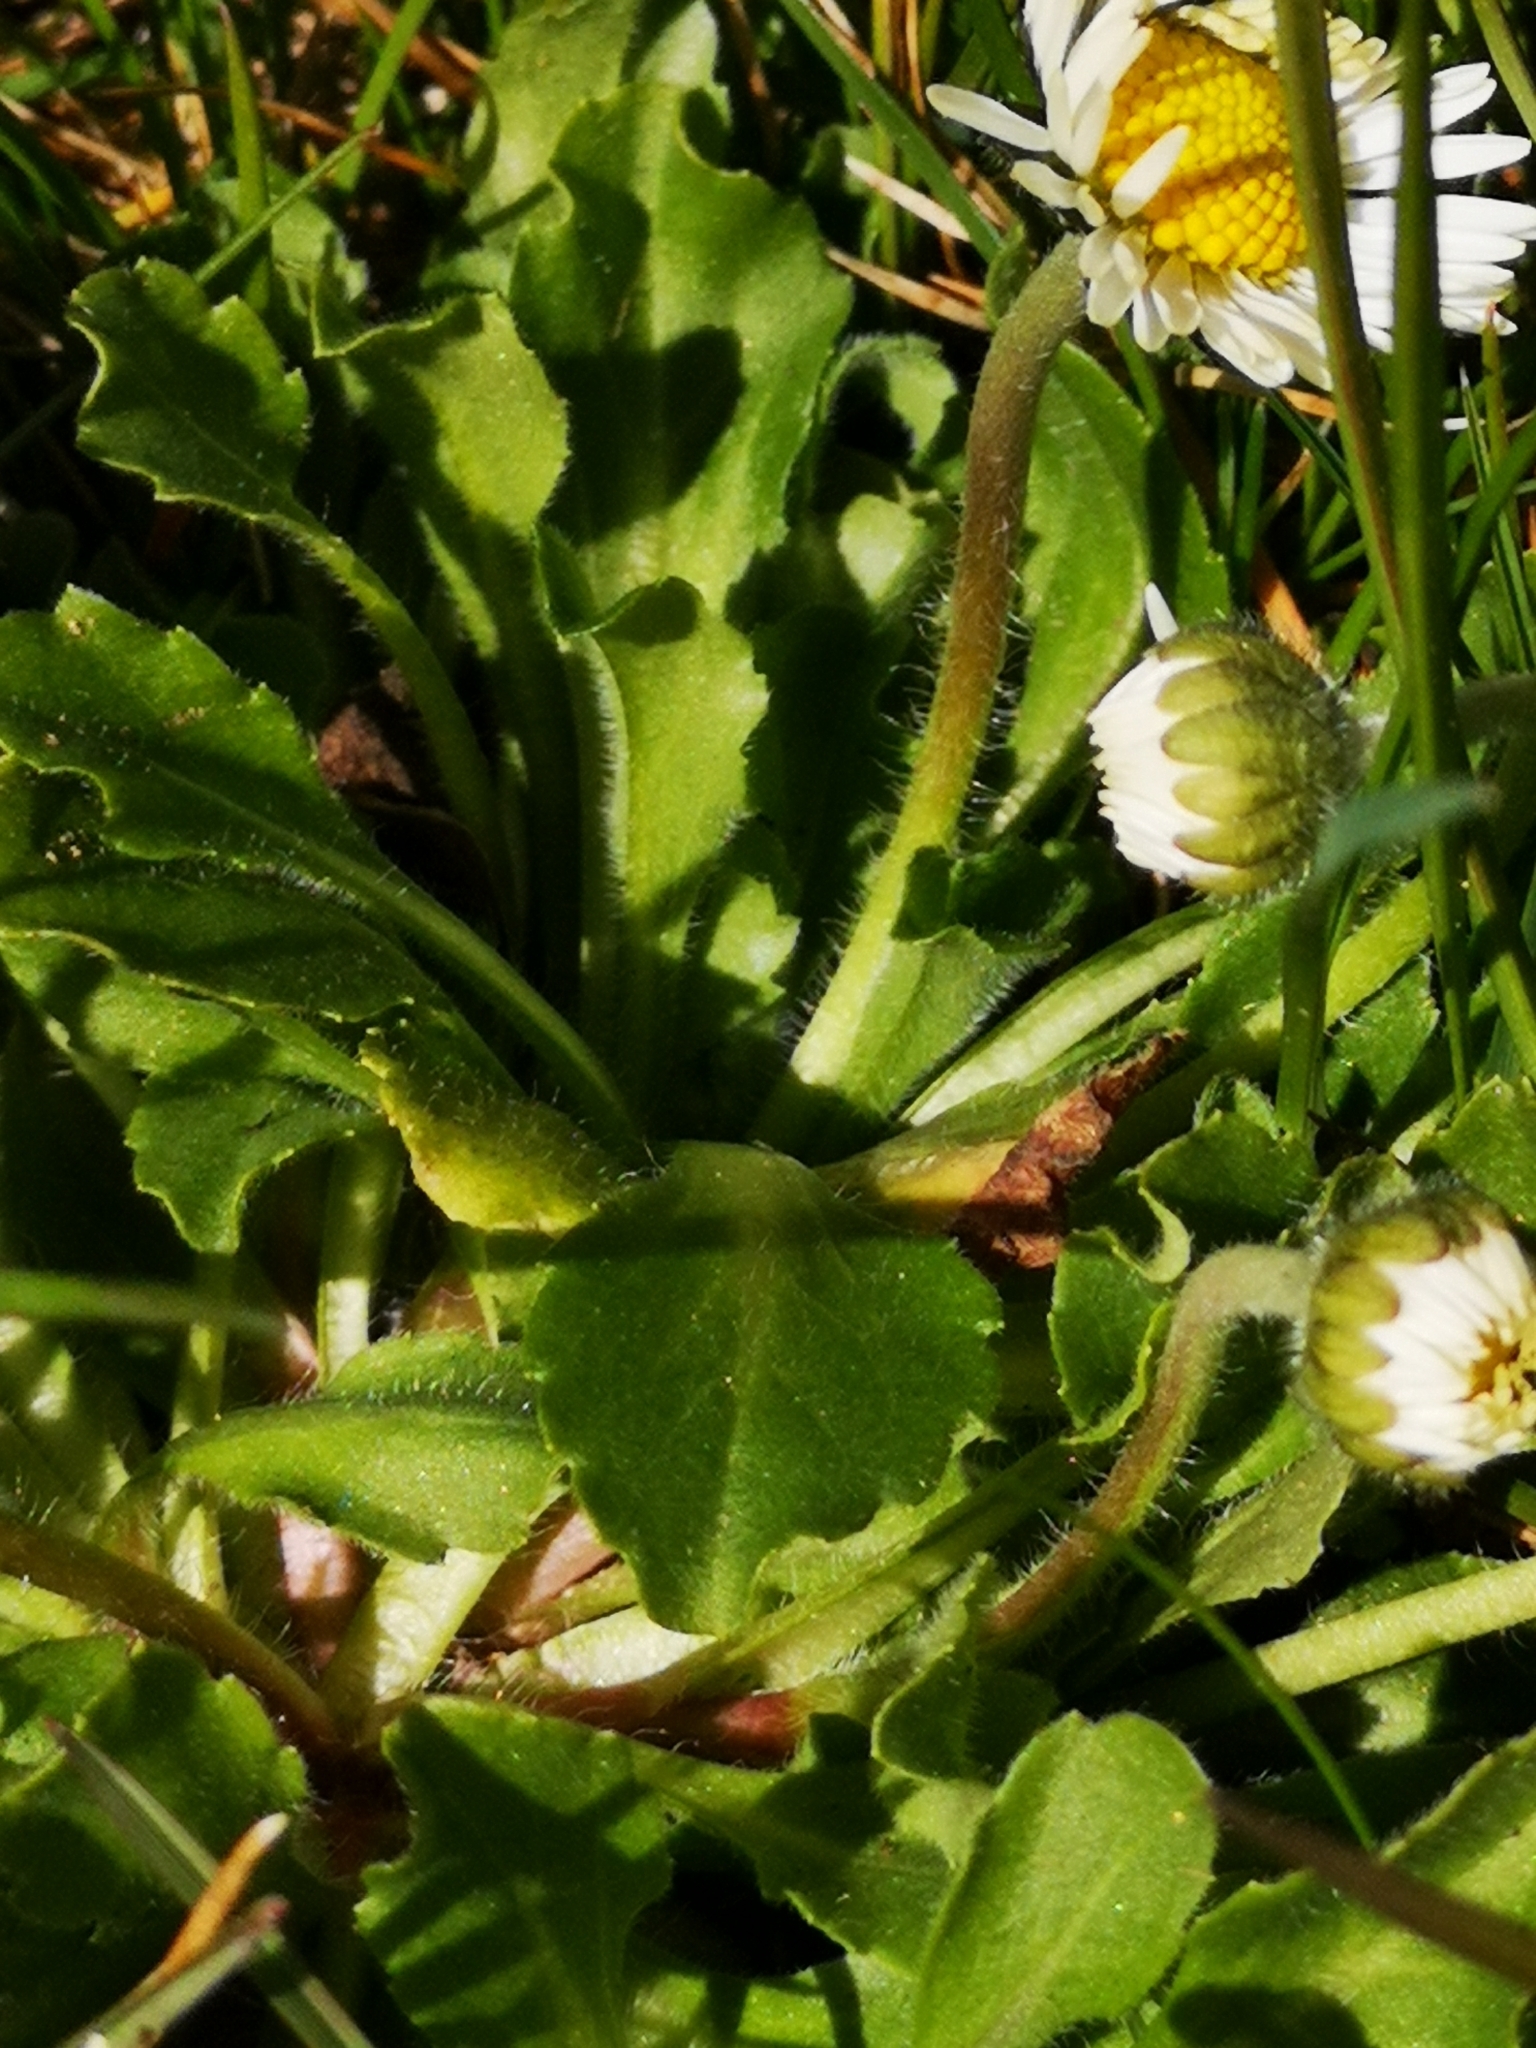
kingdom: Plantae
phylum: Tracheophyta
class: Magnoliopsida
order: Asterales
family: Asteraceae
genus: Bellis
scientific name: Bellis perennis
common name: Lawndaisy
